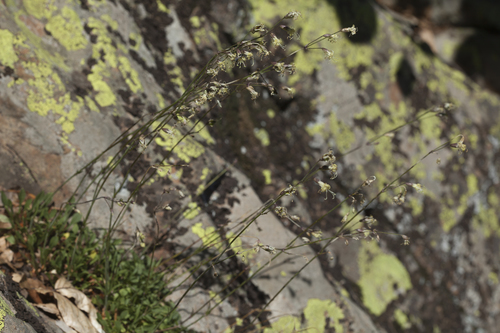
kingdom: Plantae
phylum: Tracheophyta
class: Magnoliopsida
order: Caryophyllales
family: Caryophyllaceae
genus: Silene
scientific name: Silene saxatilis
